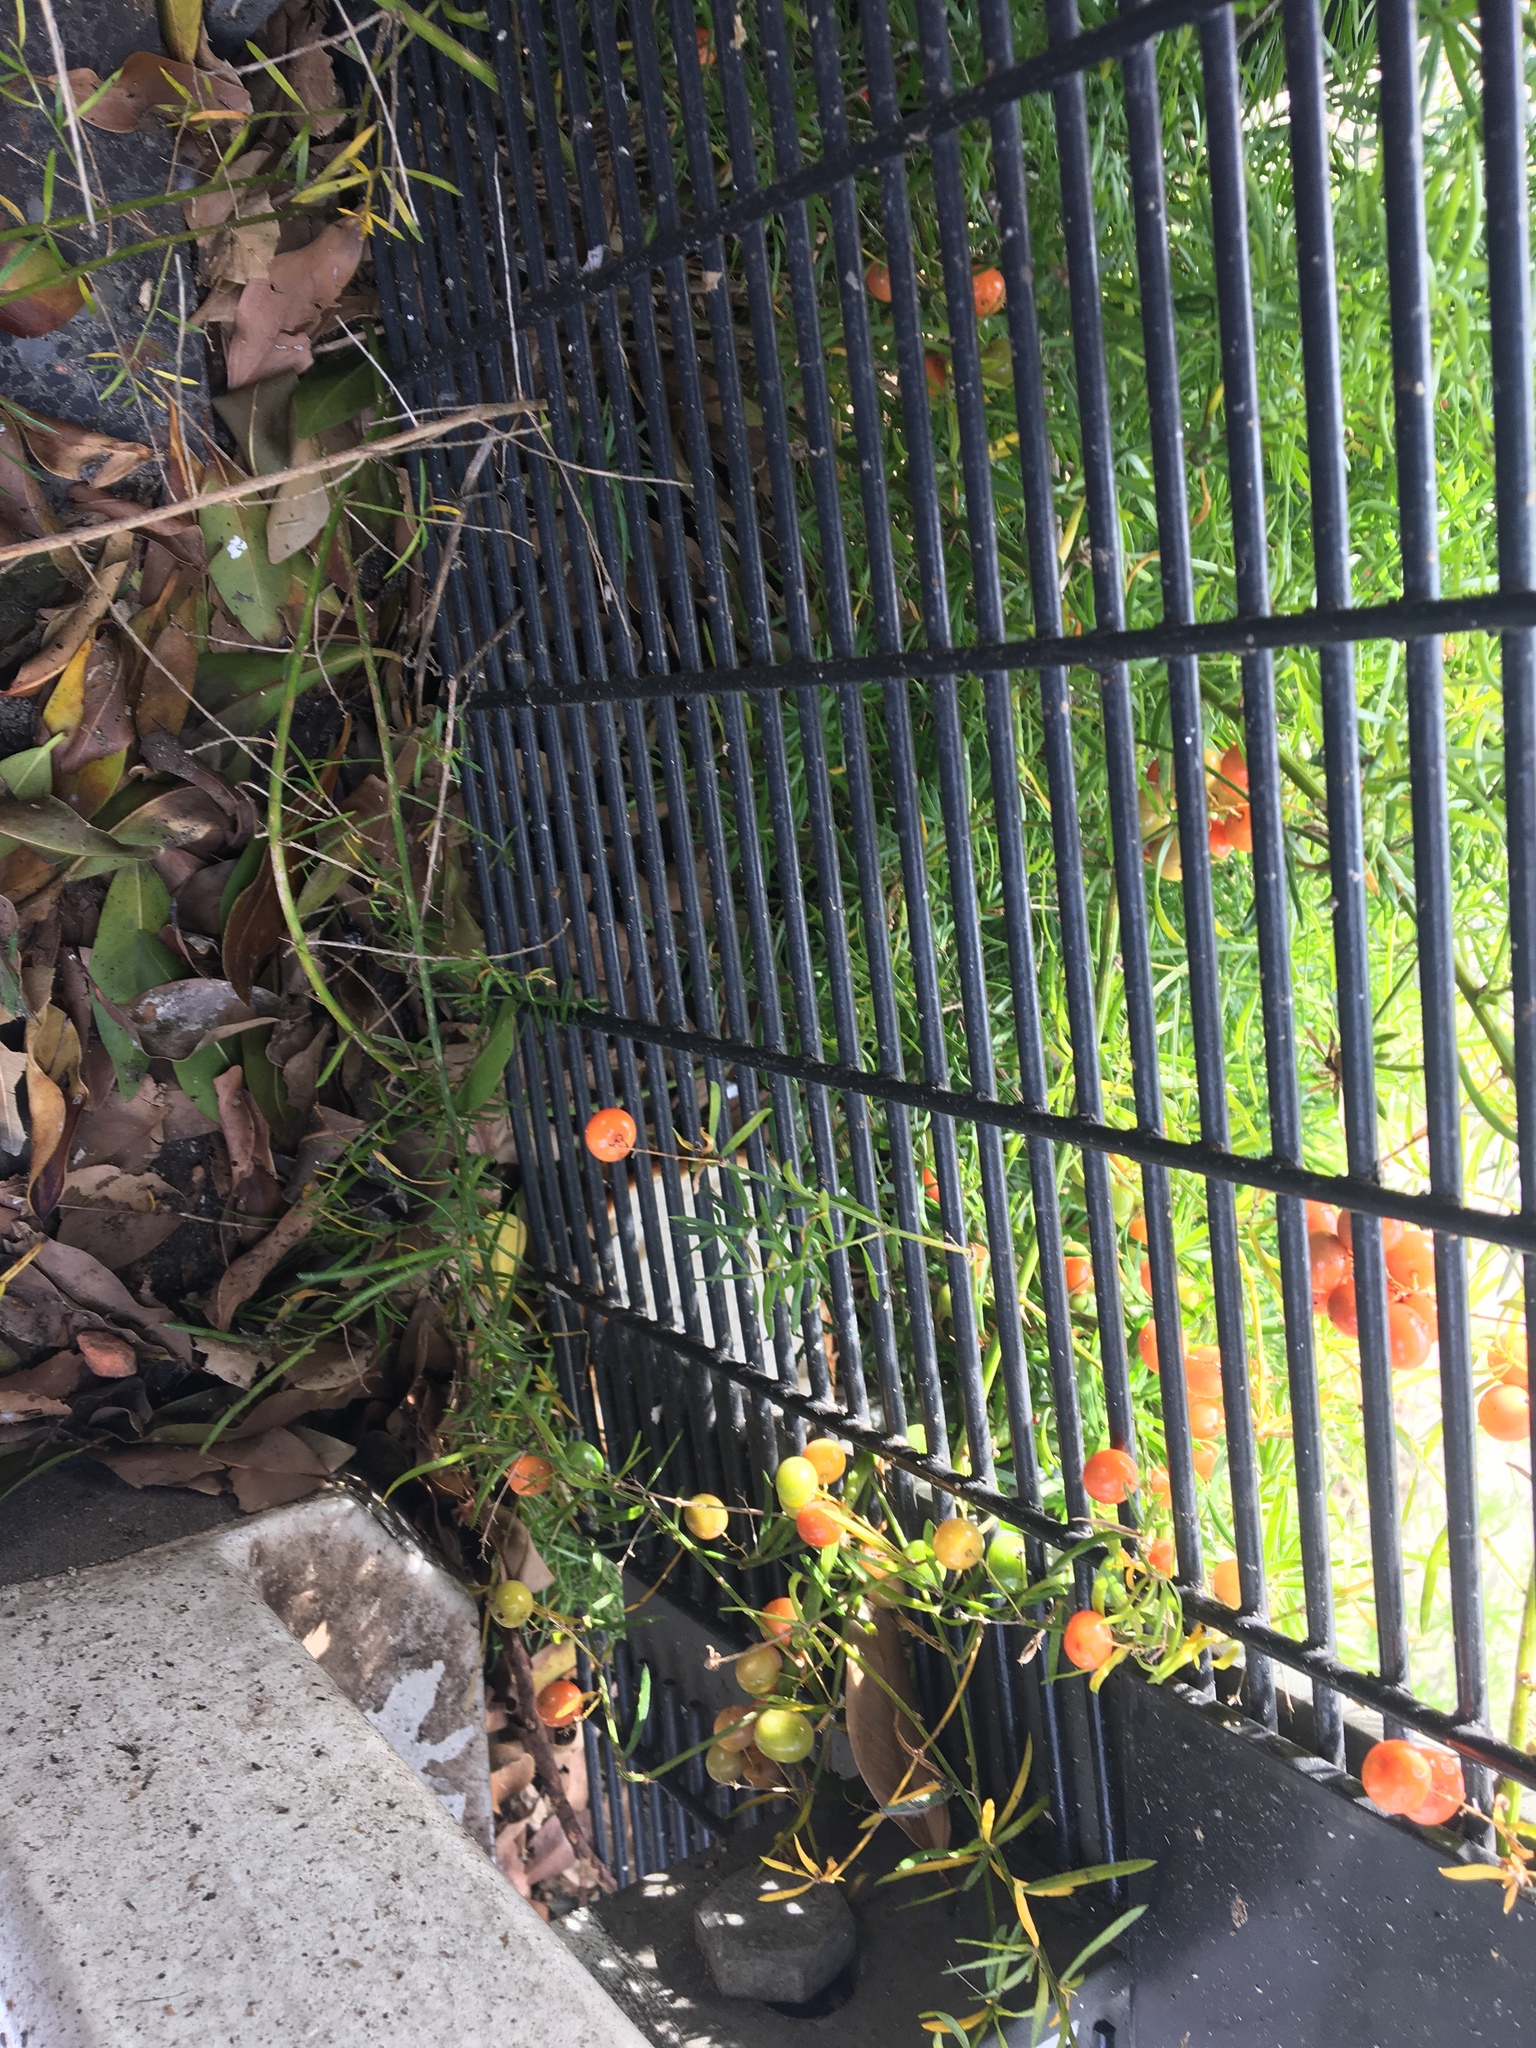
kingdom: Plantae
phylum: Tracheophyta
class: Liliopsida
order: Asparagales
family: Asparagaceae
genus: Asparagus
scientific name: Asparagus aethiopicus
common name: Sprenger's asparagus fern
